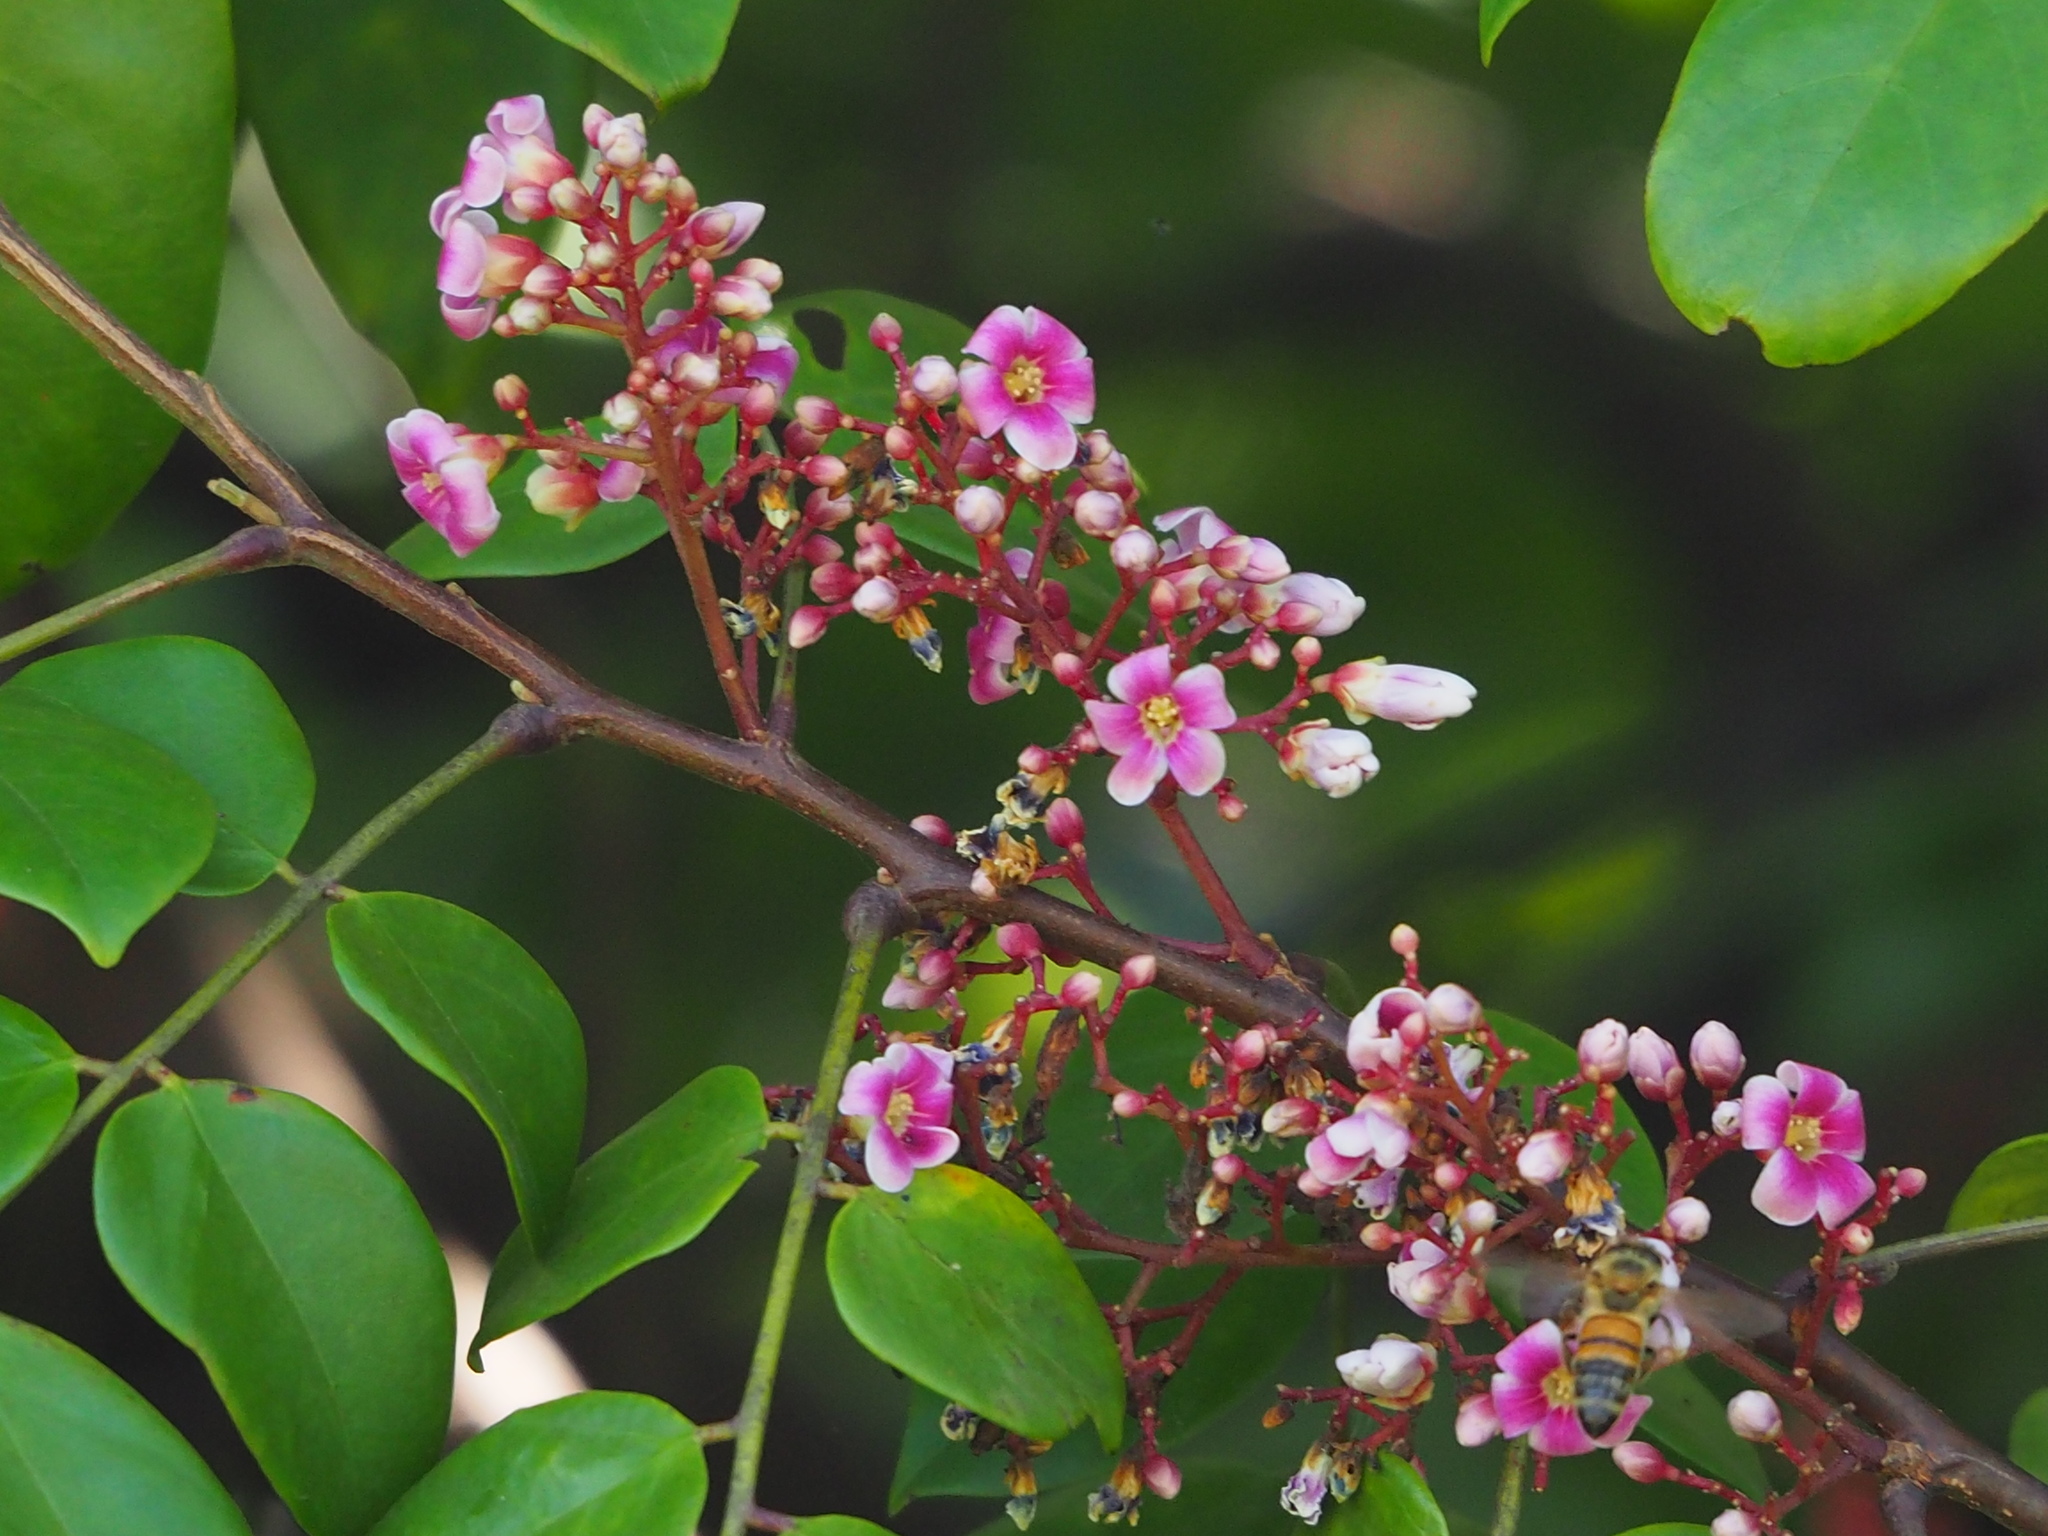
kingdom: Plantae
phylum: Tracheophyta
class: Magnoliopsida
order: Oxalidales
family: Oxalidaceae
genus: Averrhoa
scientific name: Averrhoa carambola
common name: Blimbing
